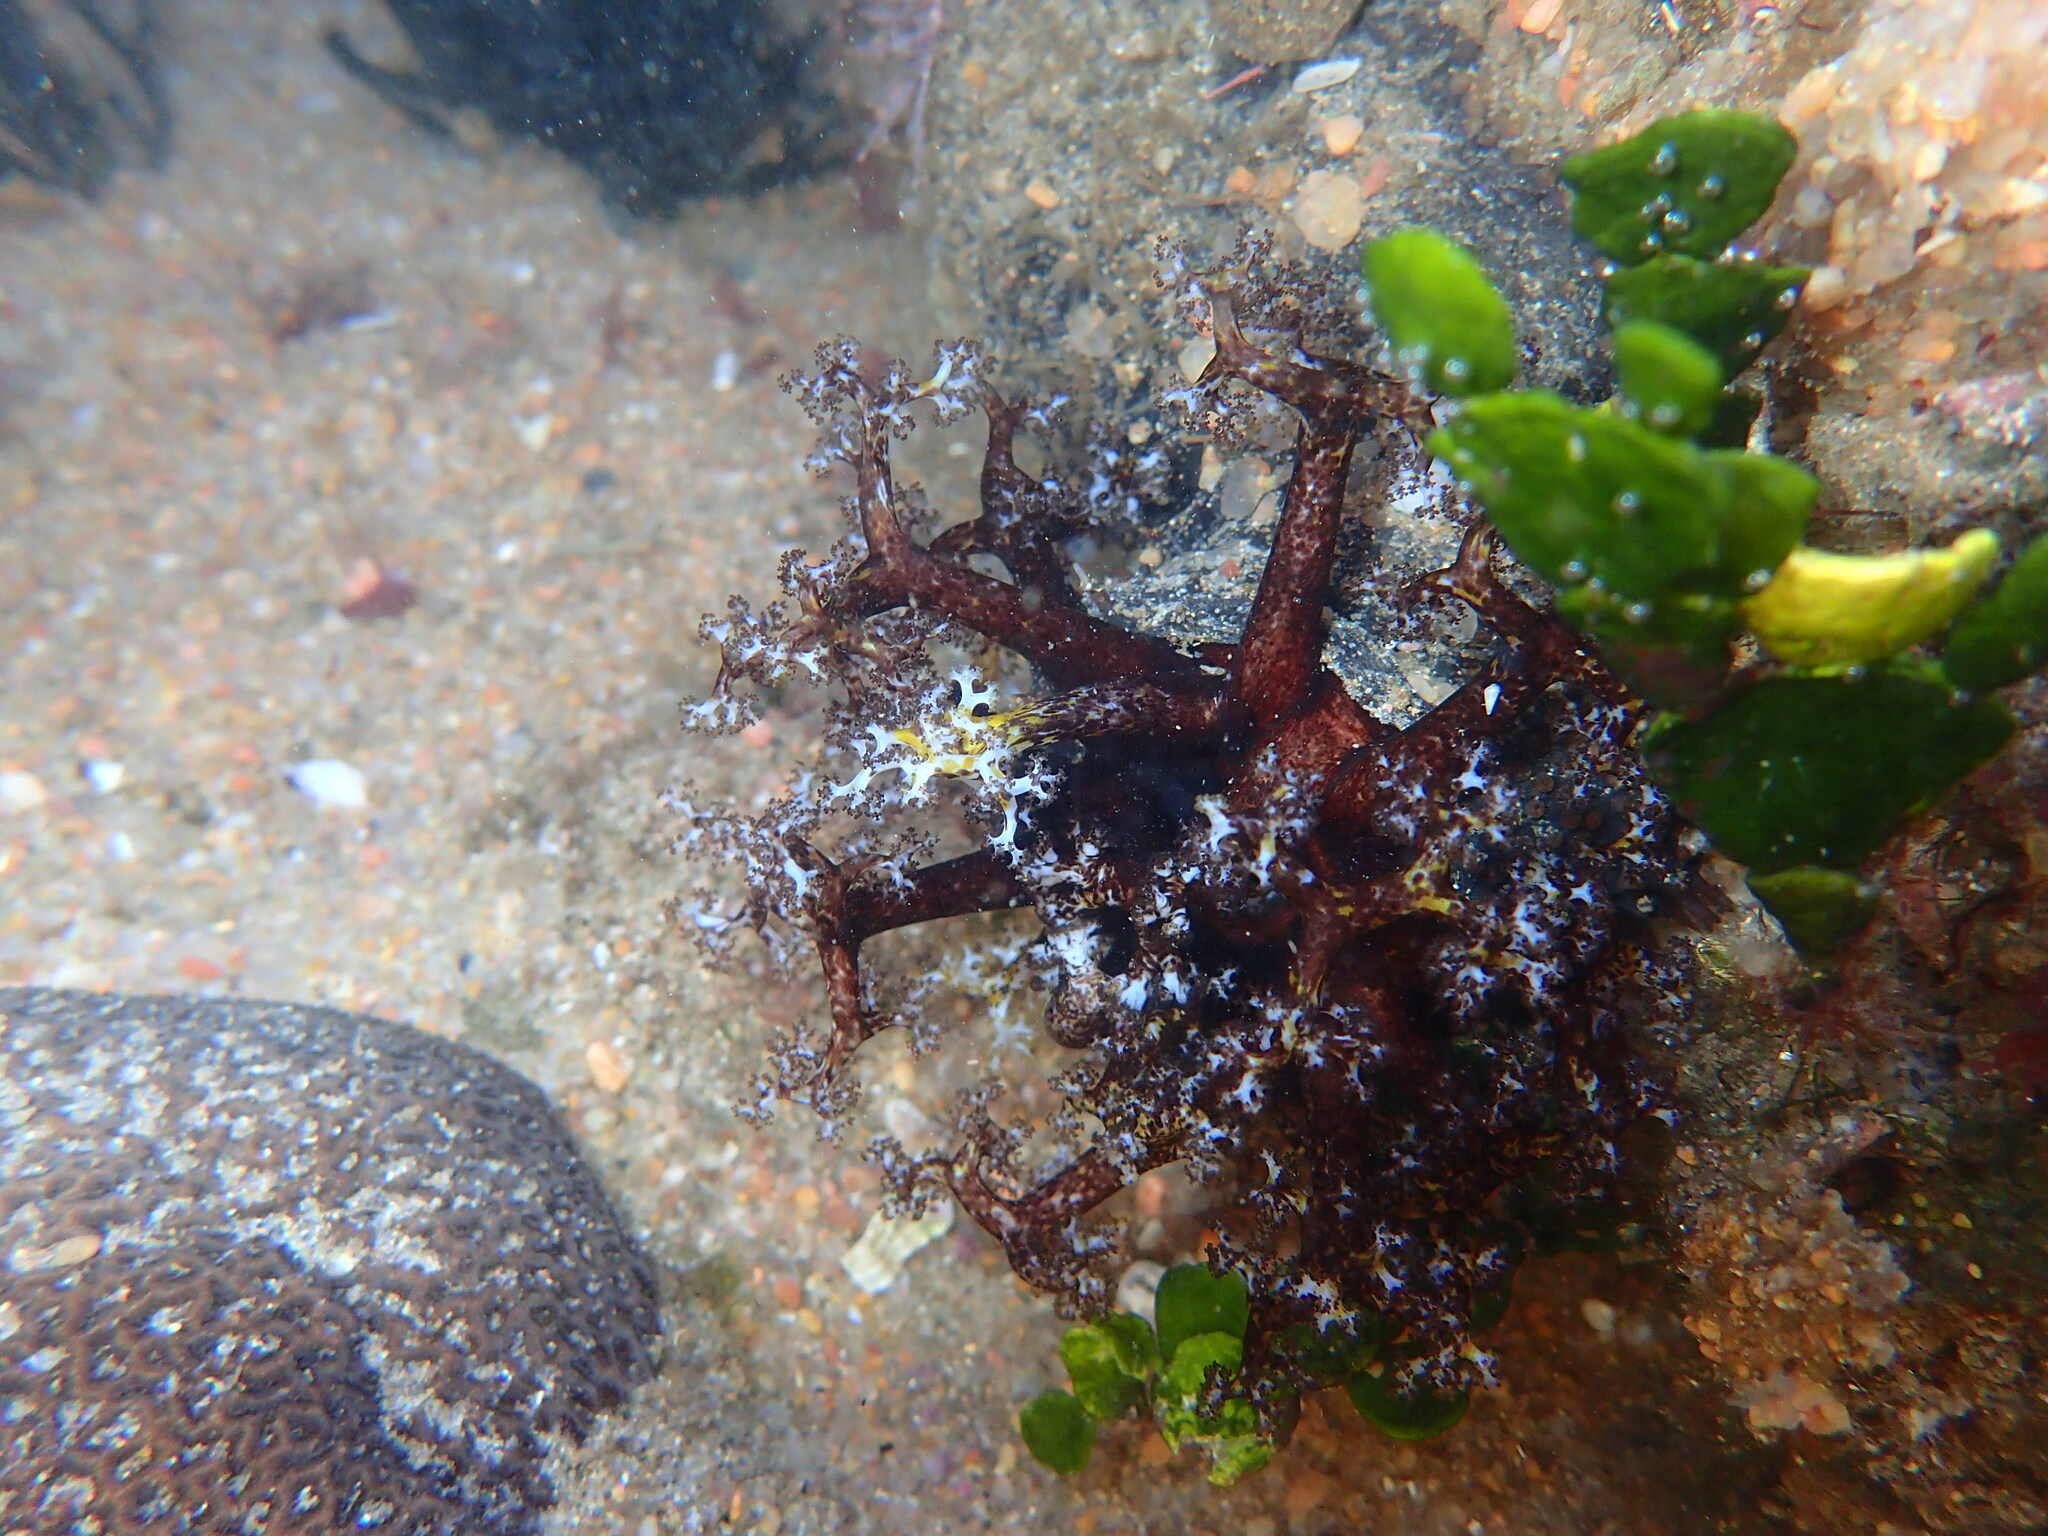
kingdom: Animalia
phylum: Echinodermata
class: Holothuroidea
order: Holothuriida
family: Holothuriidae
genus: Holothuria
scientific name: Holothuria cinerascens
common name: Ashy sea cucumber
